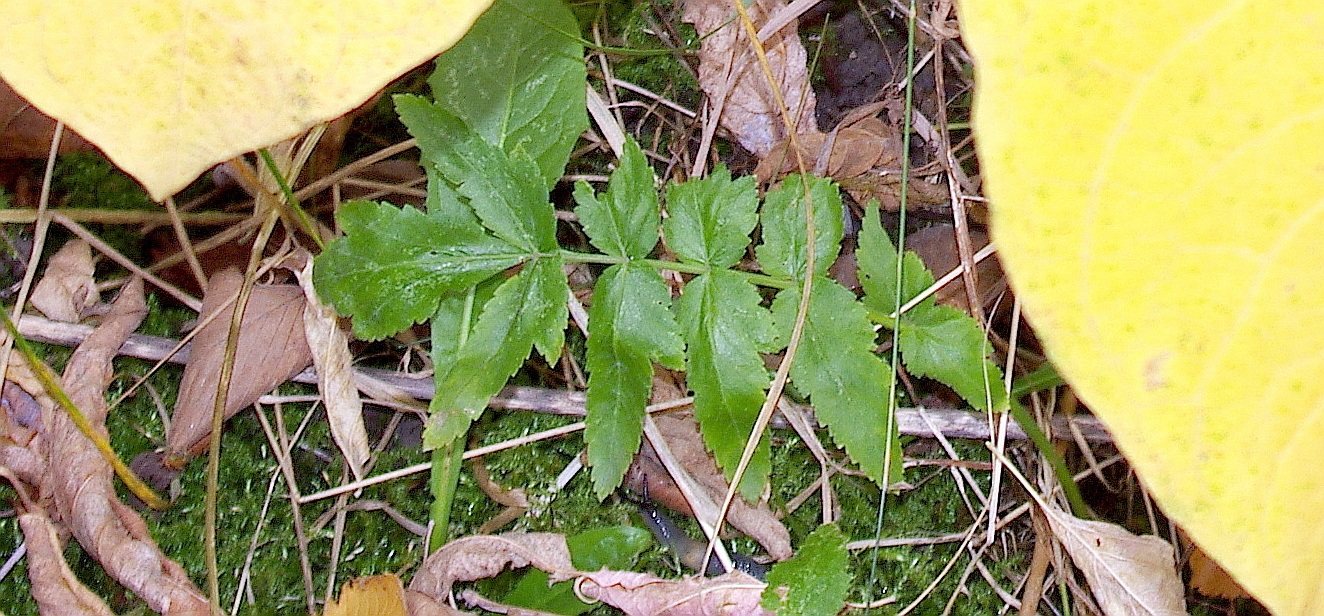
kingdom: Plantae
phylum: Tracheophyta
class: Magnoliopsida
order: Apiales
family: Apiaceae
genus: Pastinaca
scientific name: Pastinaca sativa
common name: Wild parsnip
